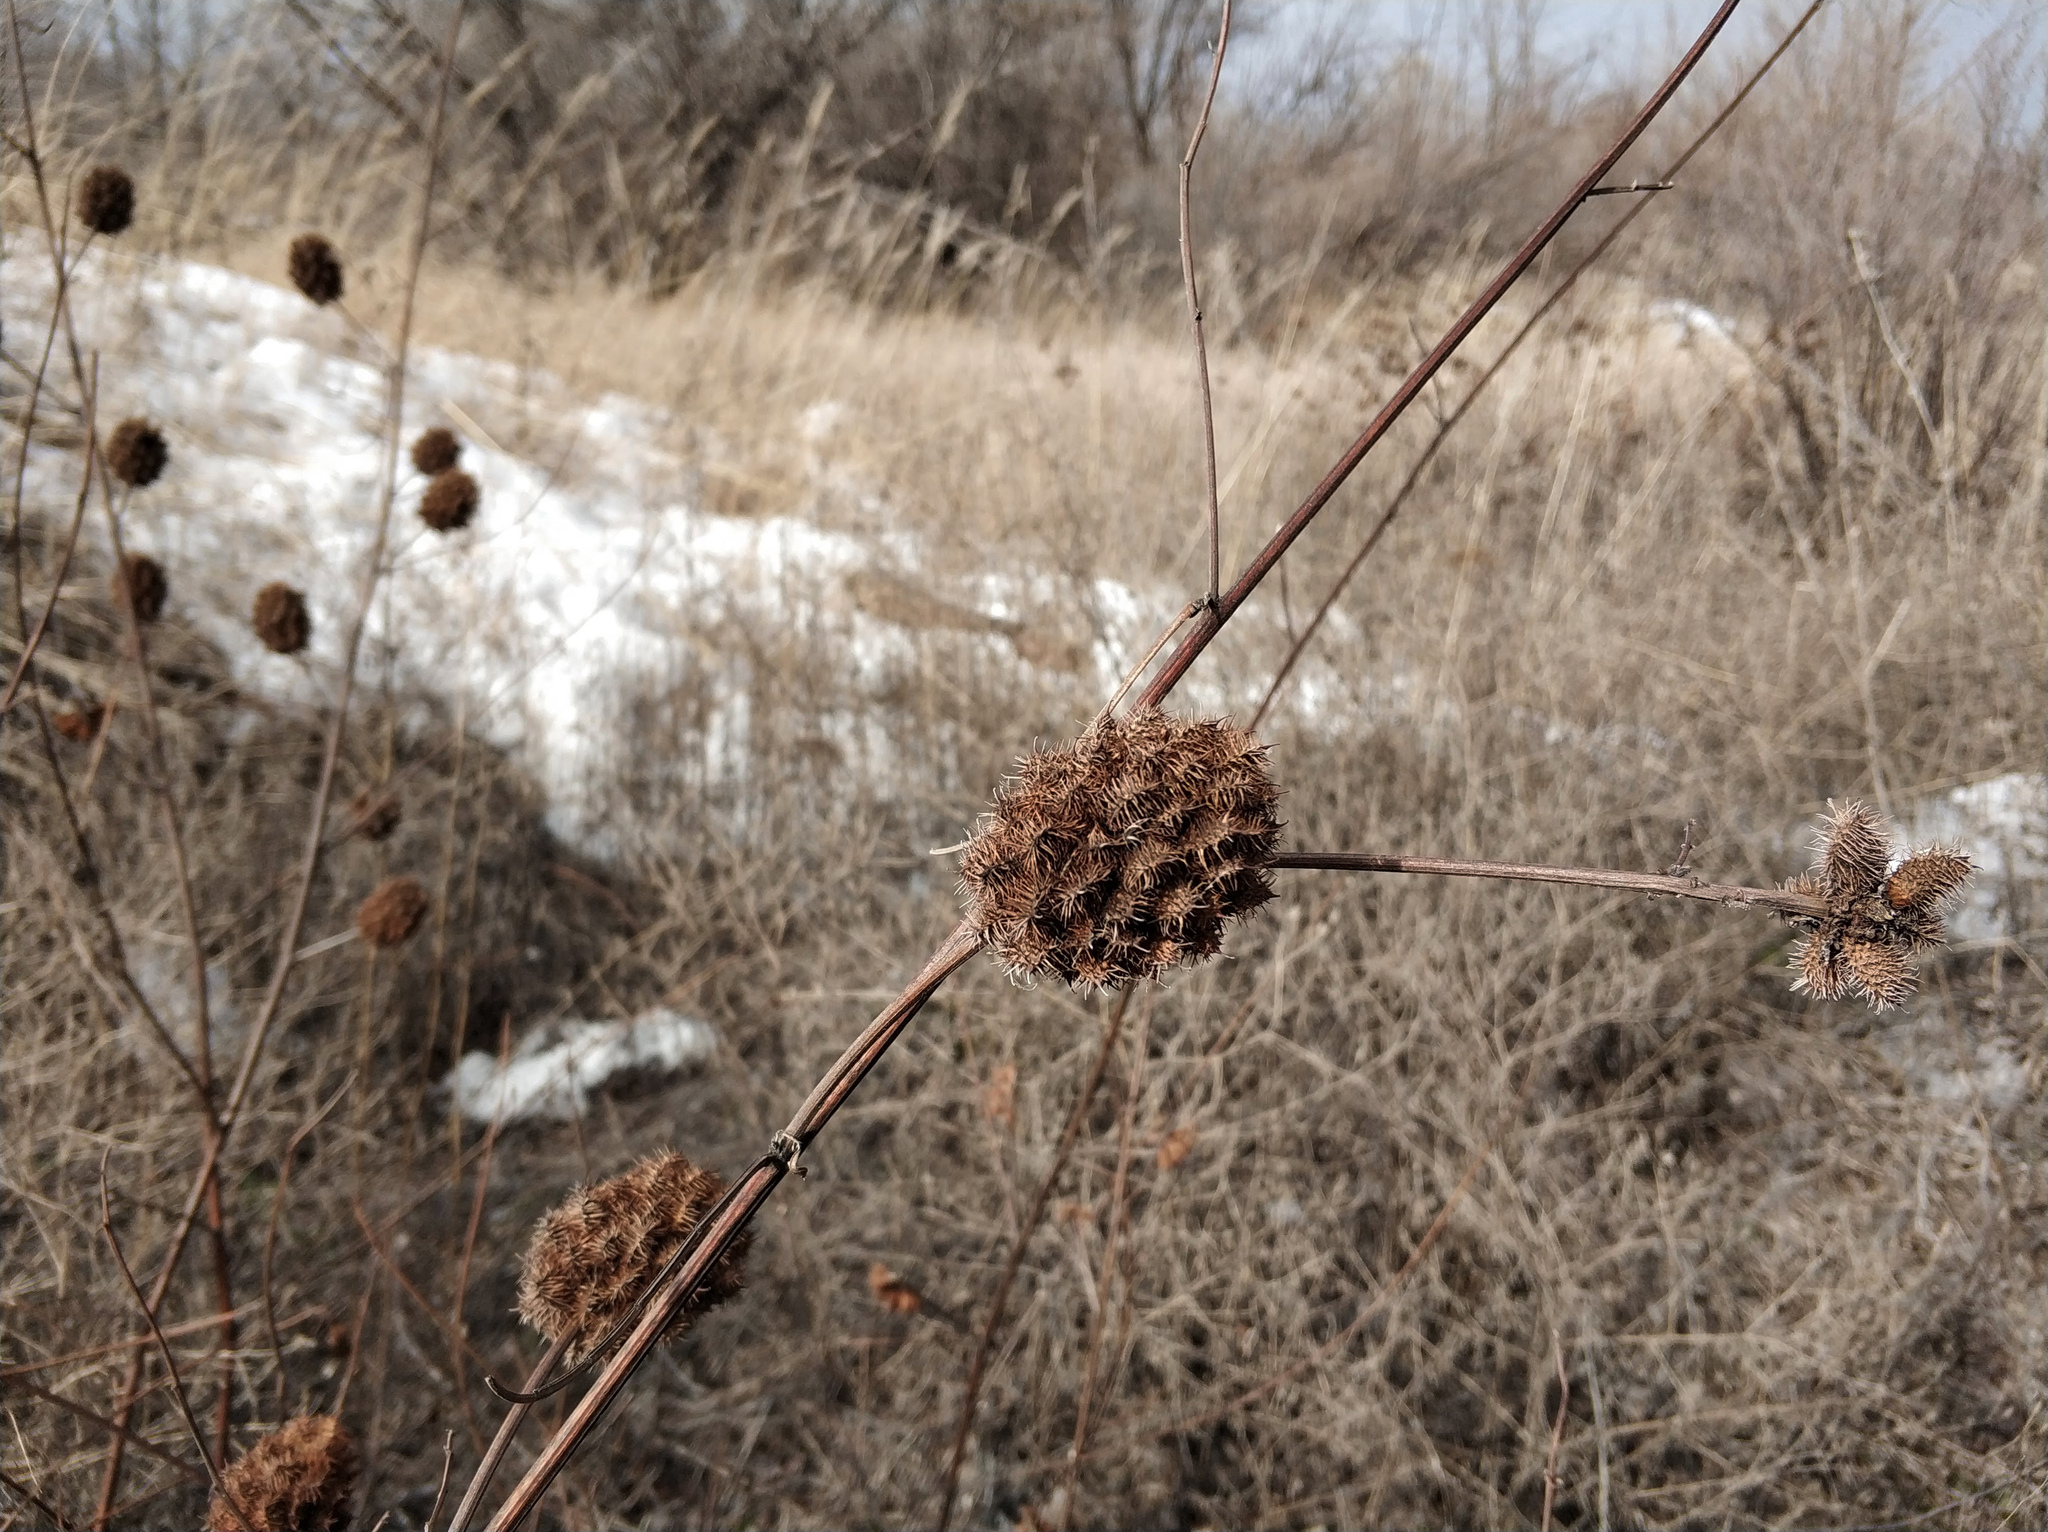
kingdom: Plantae
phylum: Tracheophyta
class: Magnoliopsida
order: Fabales
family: Fabaceae
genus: Glycyrrhiza
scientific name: Glycyrrhiza echinata
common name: German liquorice
